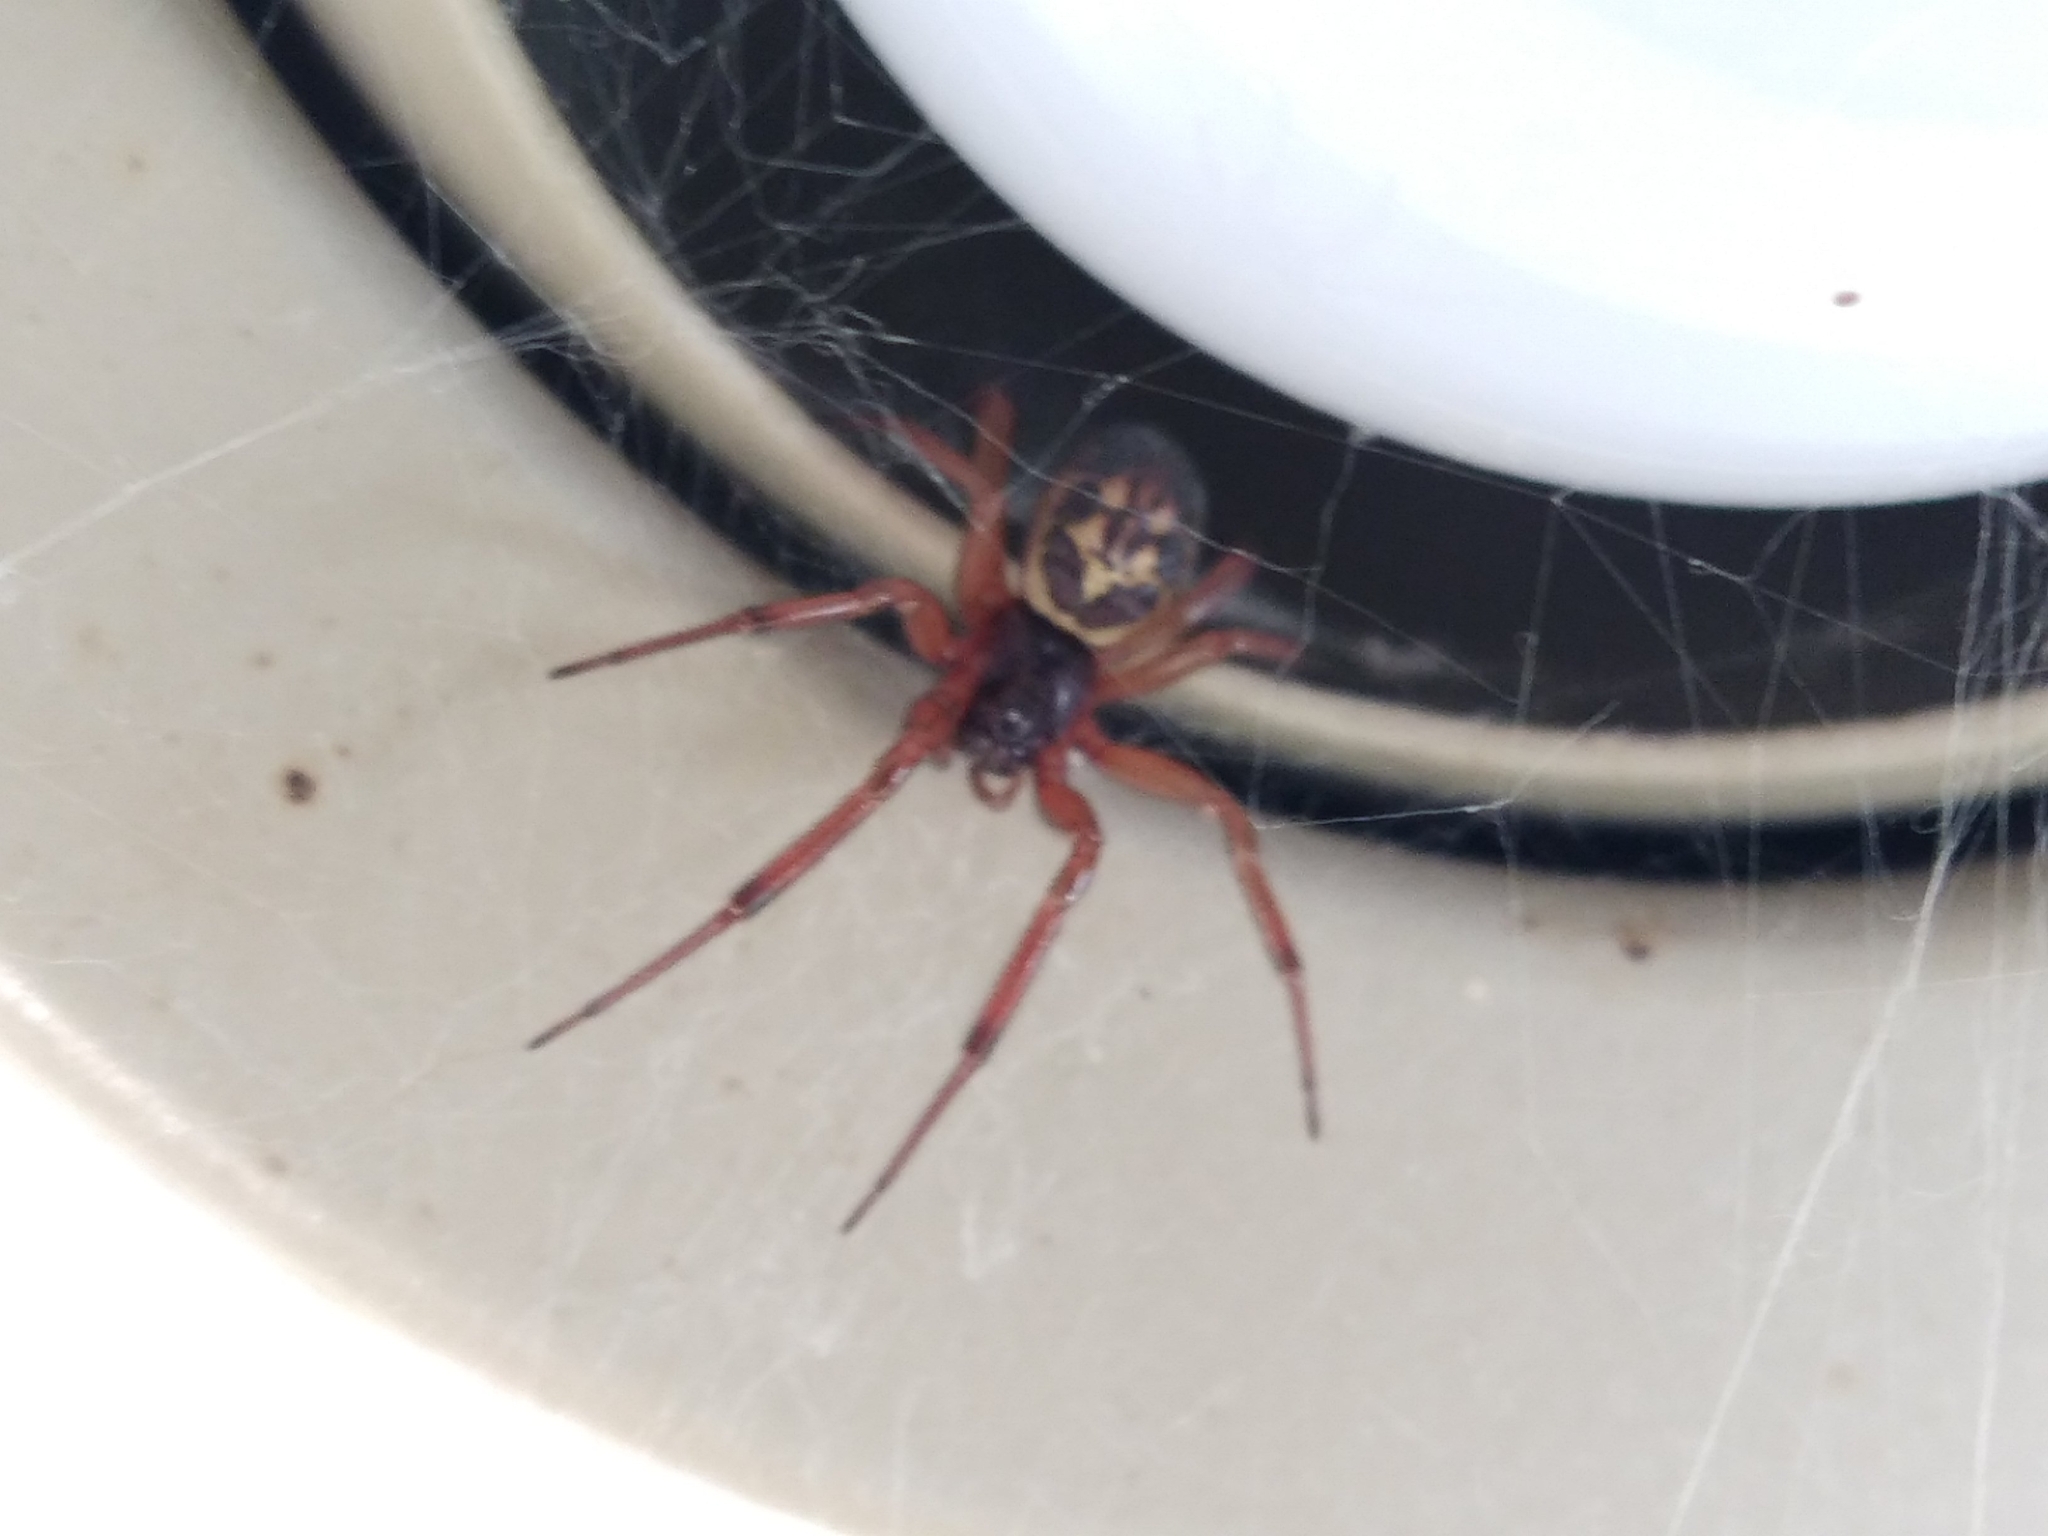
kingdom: Animalia
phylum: Arthropoda
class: Arachnida
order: Araneae
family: Theridiidae
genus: Steatoda
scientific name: Steatoda nobilis
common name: Cobweb weaver
